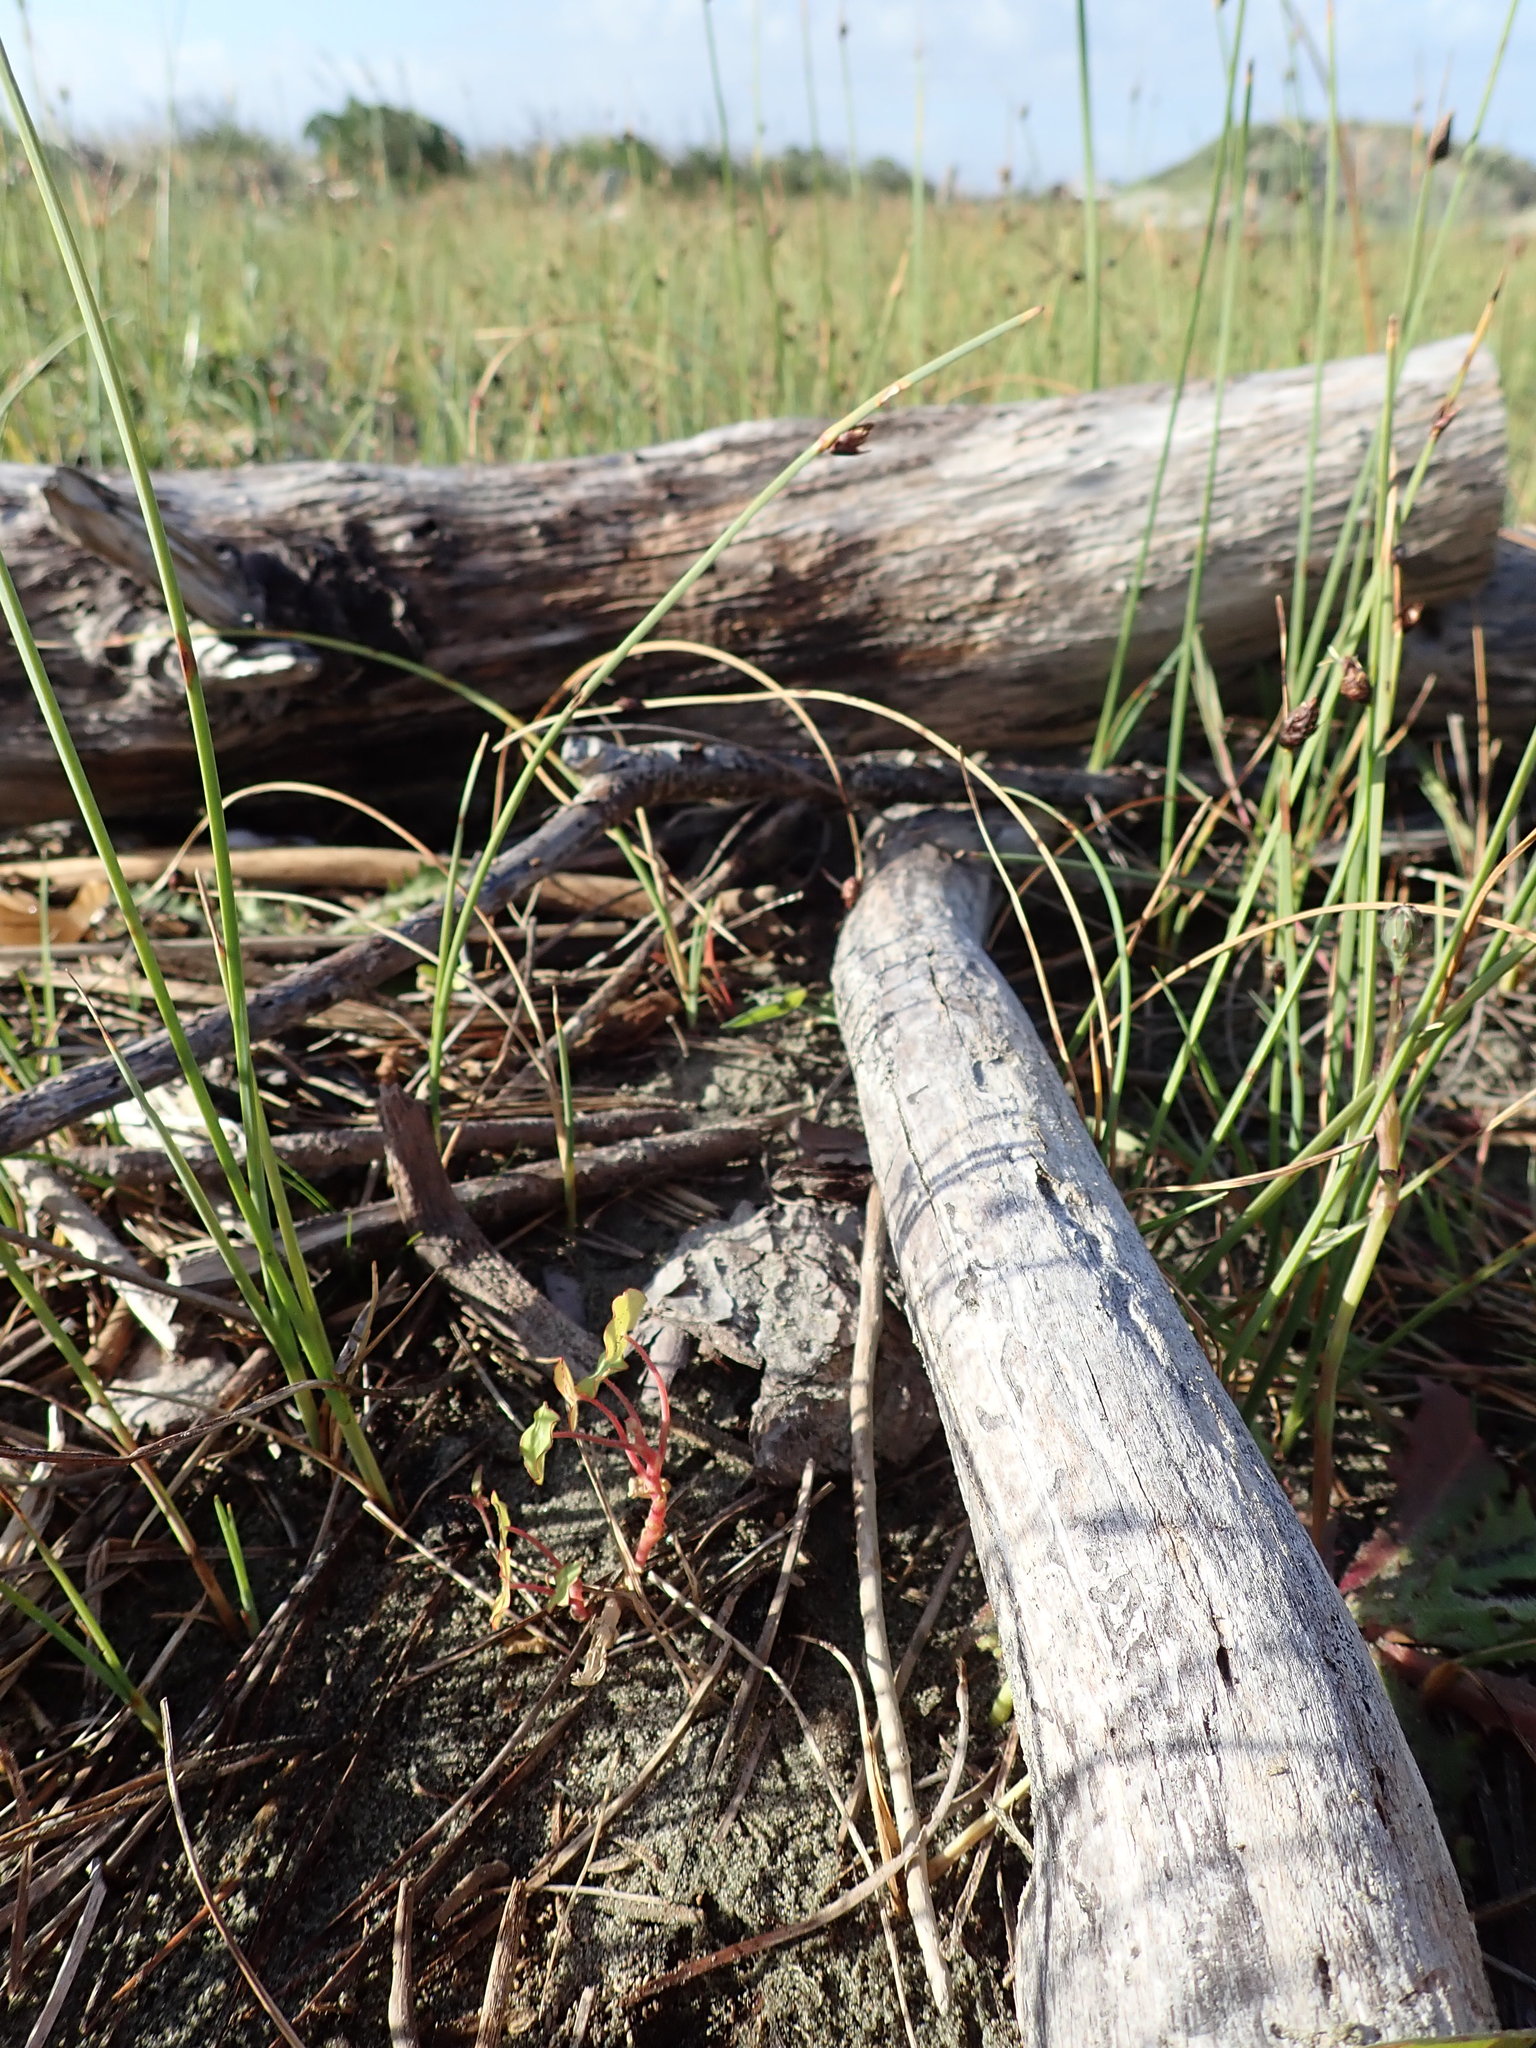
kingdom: Plantae
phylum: Tracheophyta
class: Magnoliopsida
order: Brassicales
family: Tropaeolaceae
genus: Tropaeolum
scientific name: Tropaeolum majus
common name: Nasturtium
